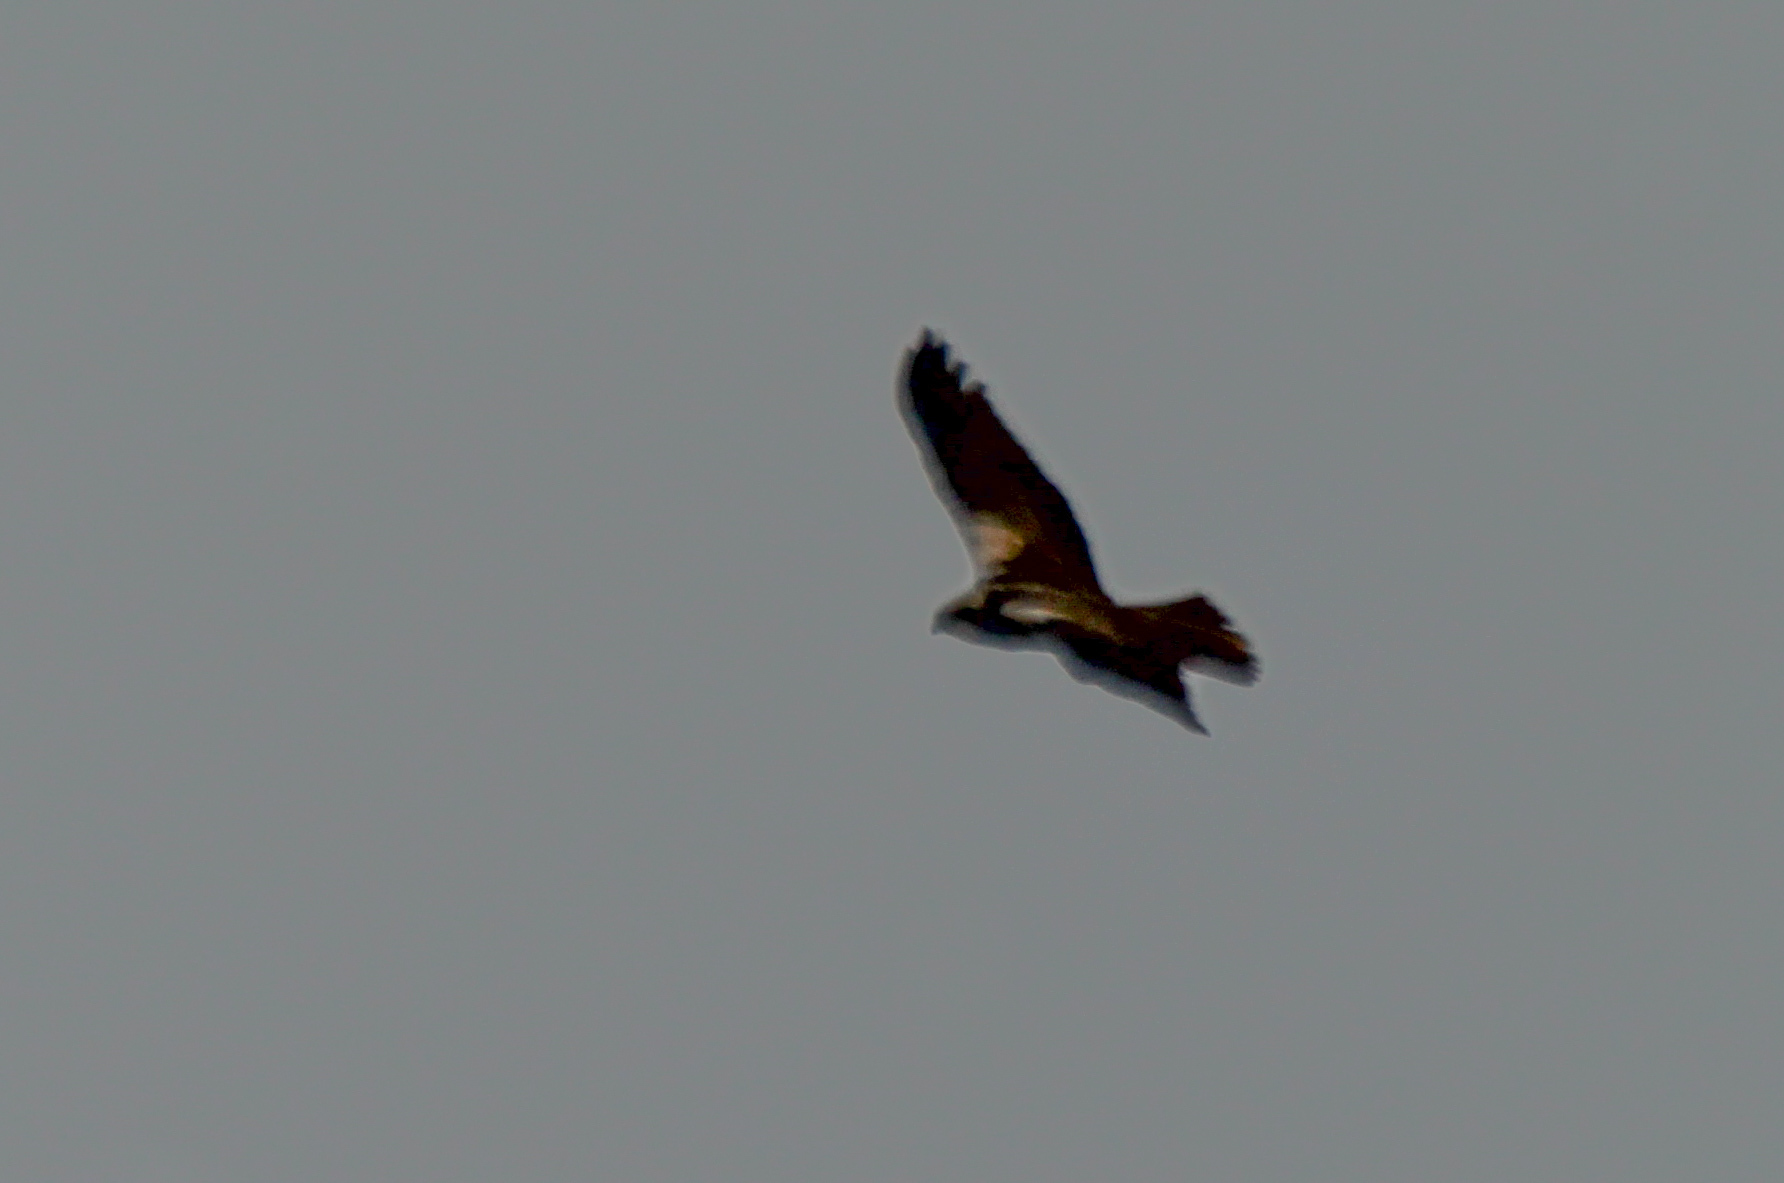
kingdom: Animalia
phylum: Chordata
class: Aves
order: Accipitriformes
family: Accipitridae
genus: Circus
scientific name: Circus aeruginosus
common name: Western marsh harrier
